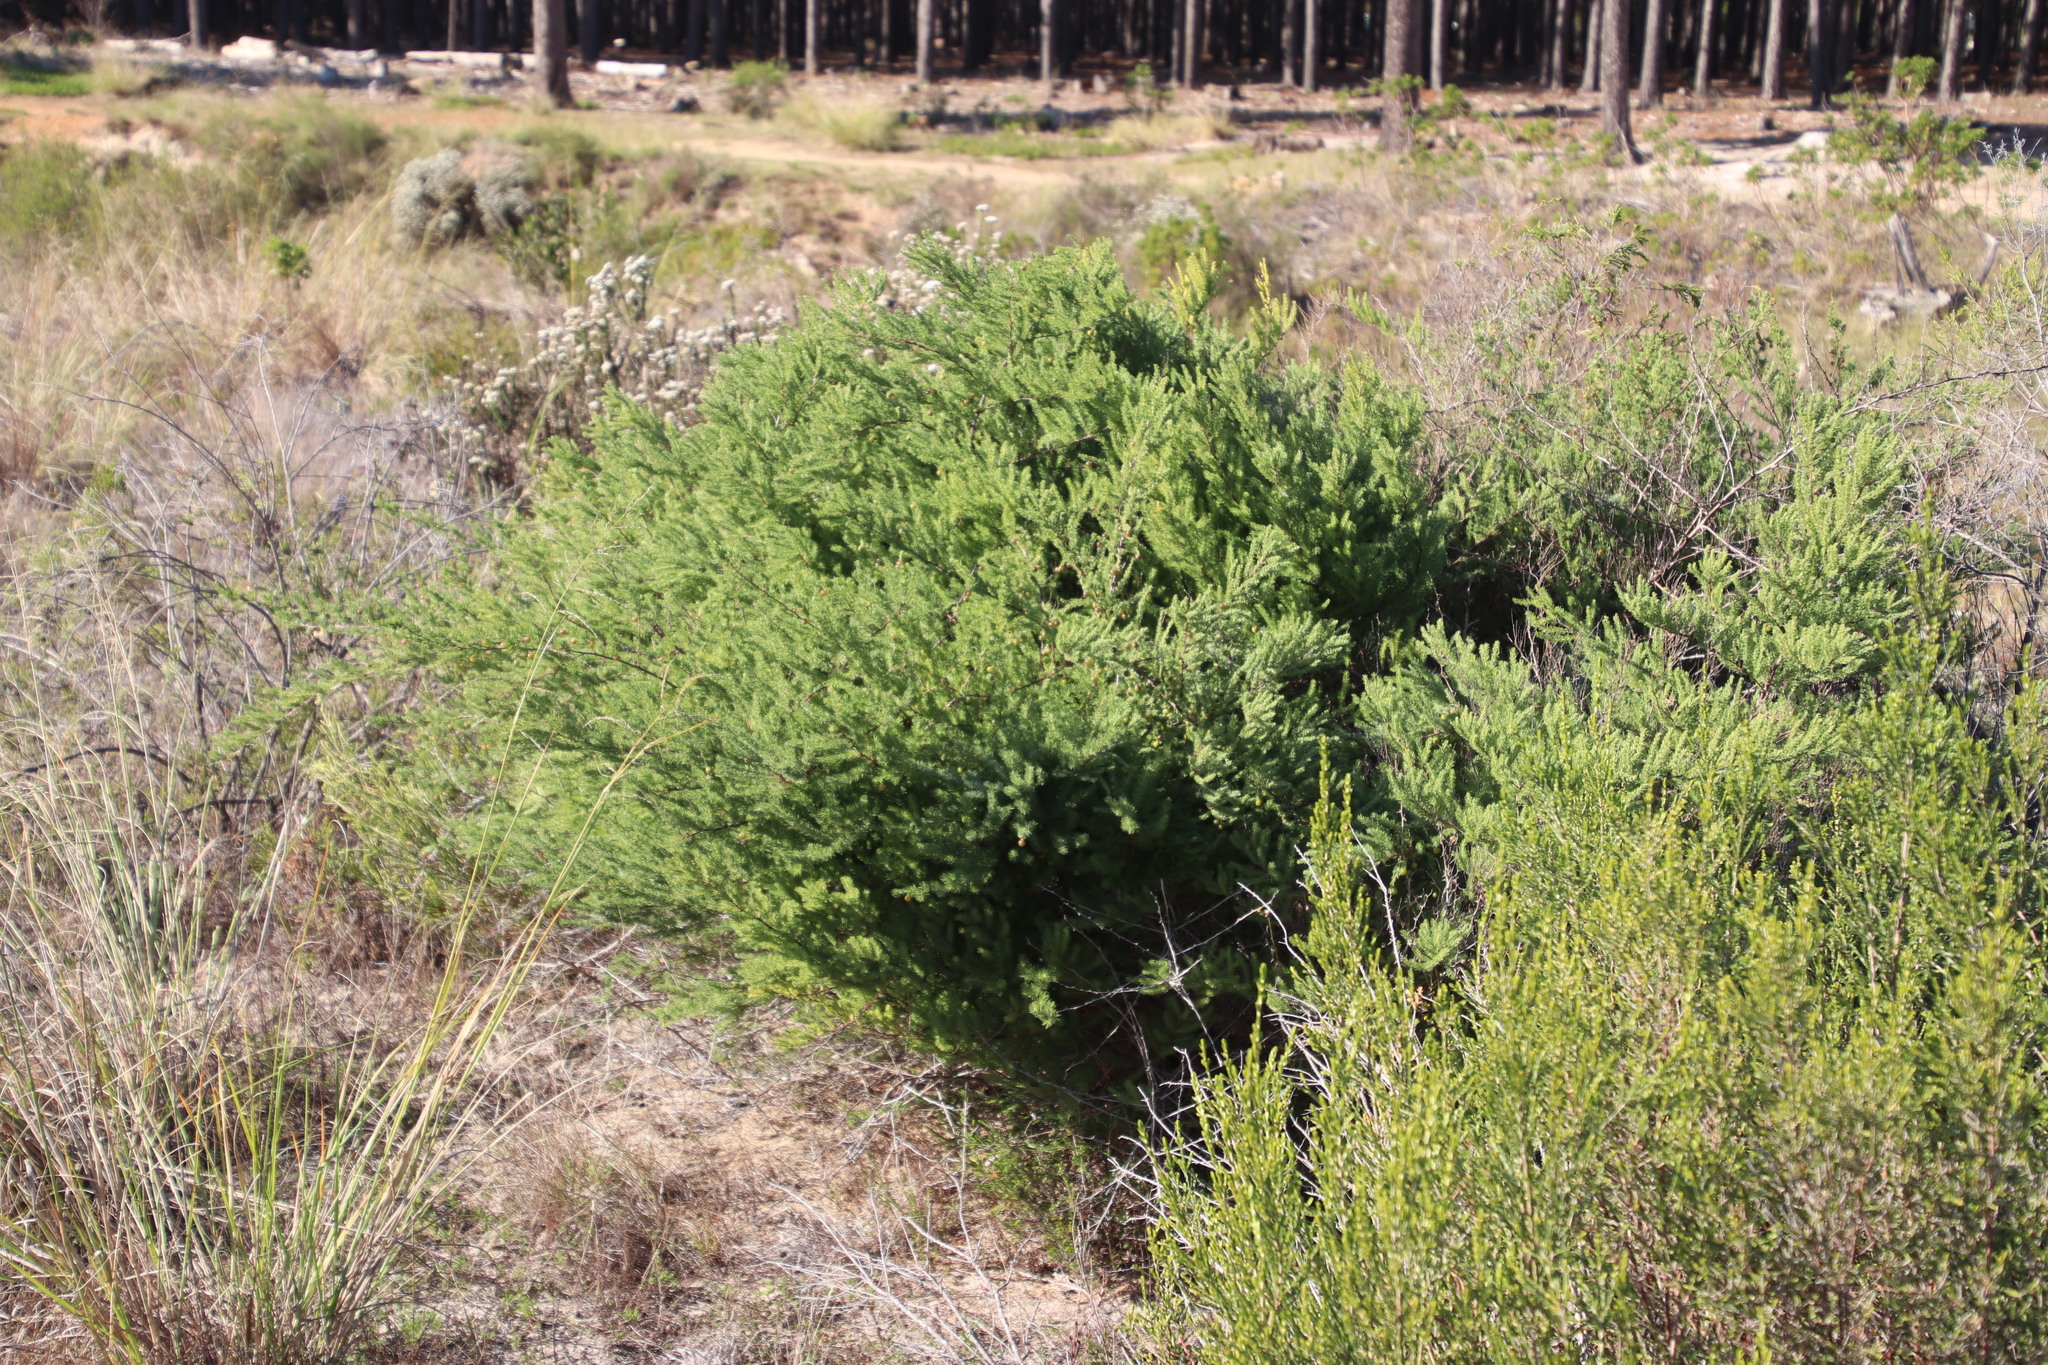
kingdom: Plantae
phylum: Tracheophyta
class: Liliopsida
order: Asparagales
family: Asparagaceae
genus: Asparagus
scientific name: Asparagus rubicundus
